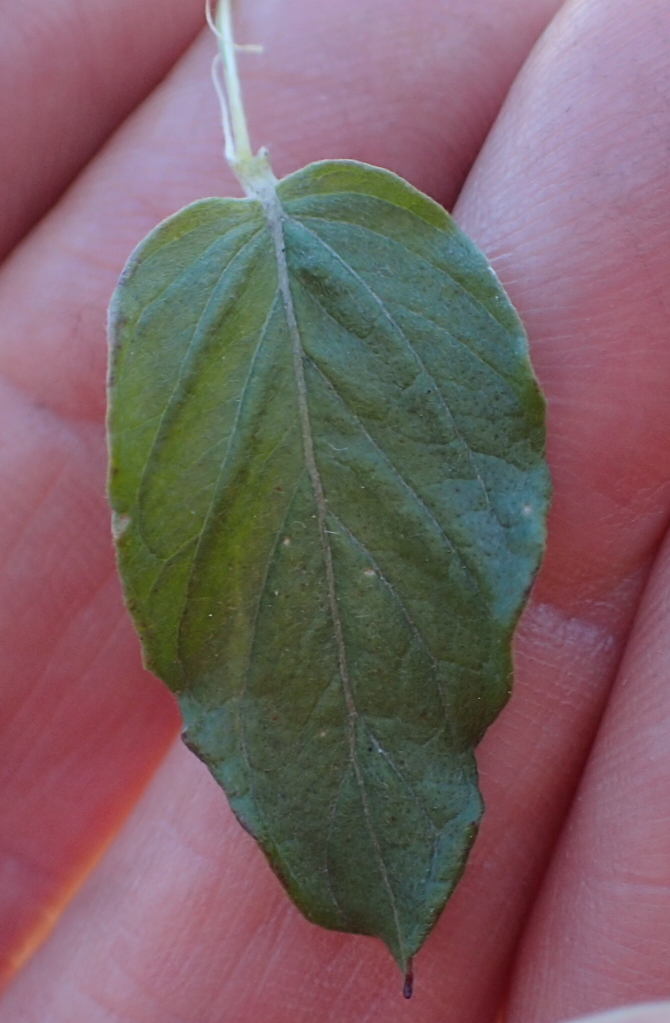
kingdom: Plantae
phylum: Tracheophyta
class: Magnoliopsida
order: Asterales
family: Asteraceae
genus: Hilliardiella
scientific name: Hilliardiella oligocephala
